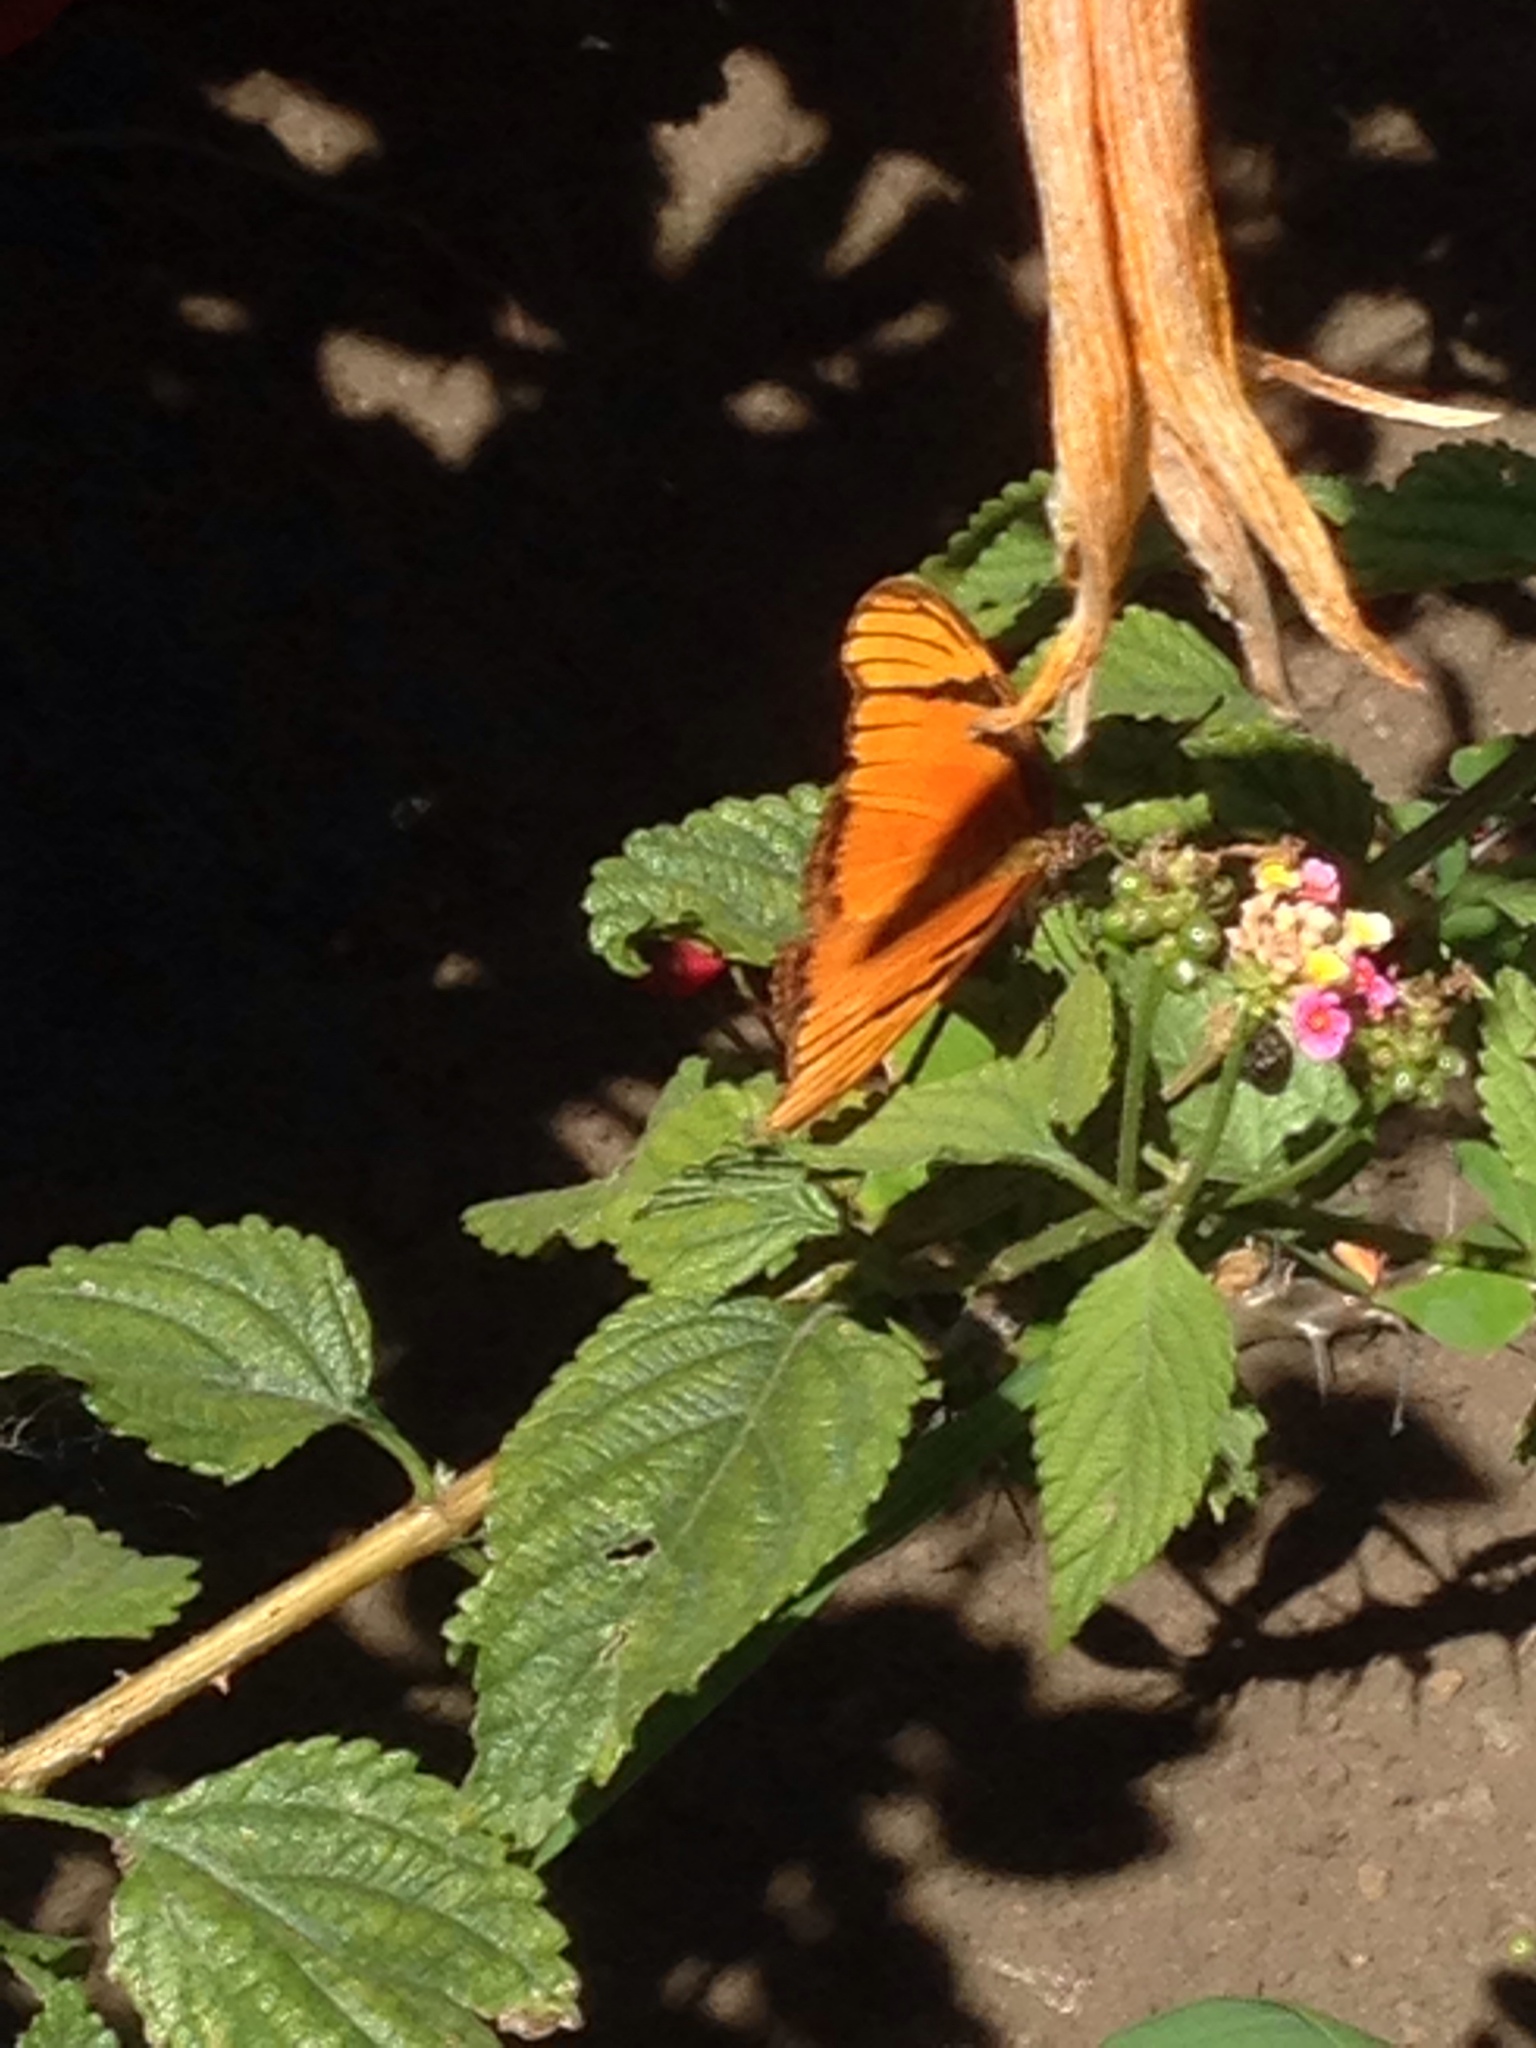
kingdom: Animalia
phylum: Arthropoda
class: Insecta
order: Lepidoptera
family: Nymphalidae
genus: Dione
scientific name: Dione juno
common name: Juno silverspot
